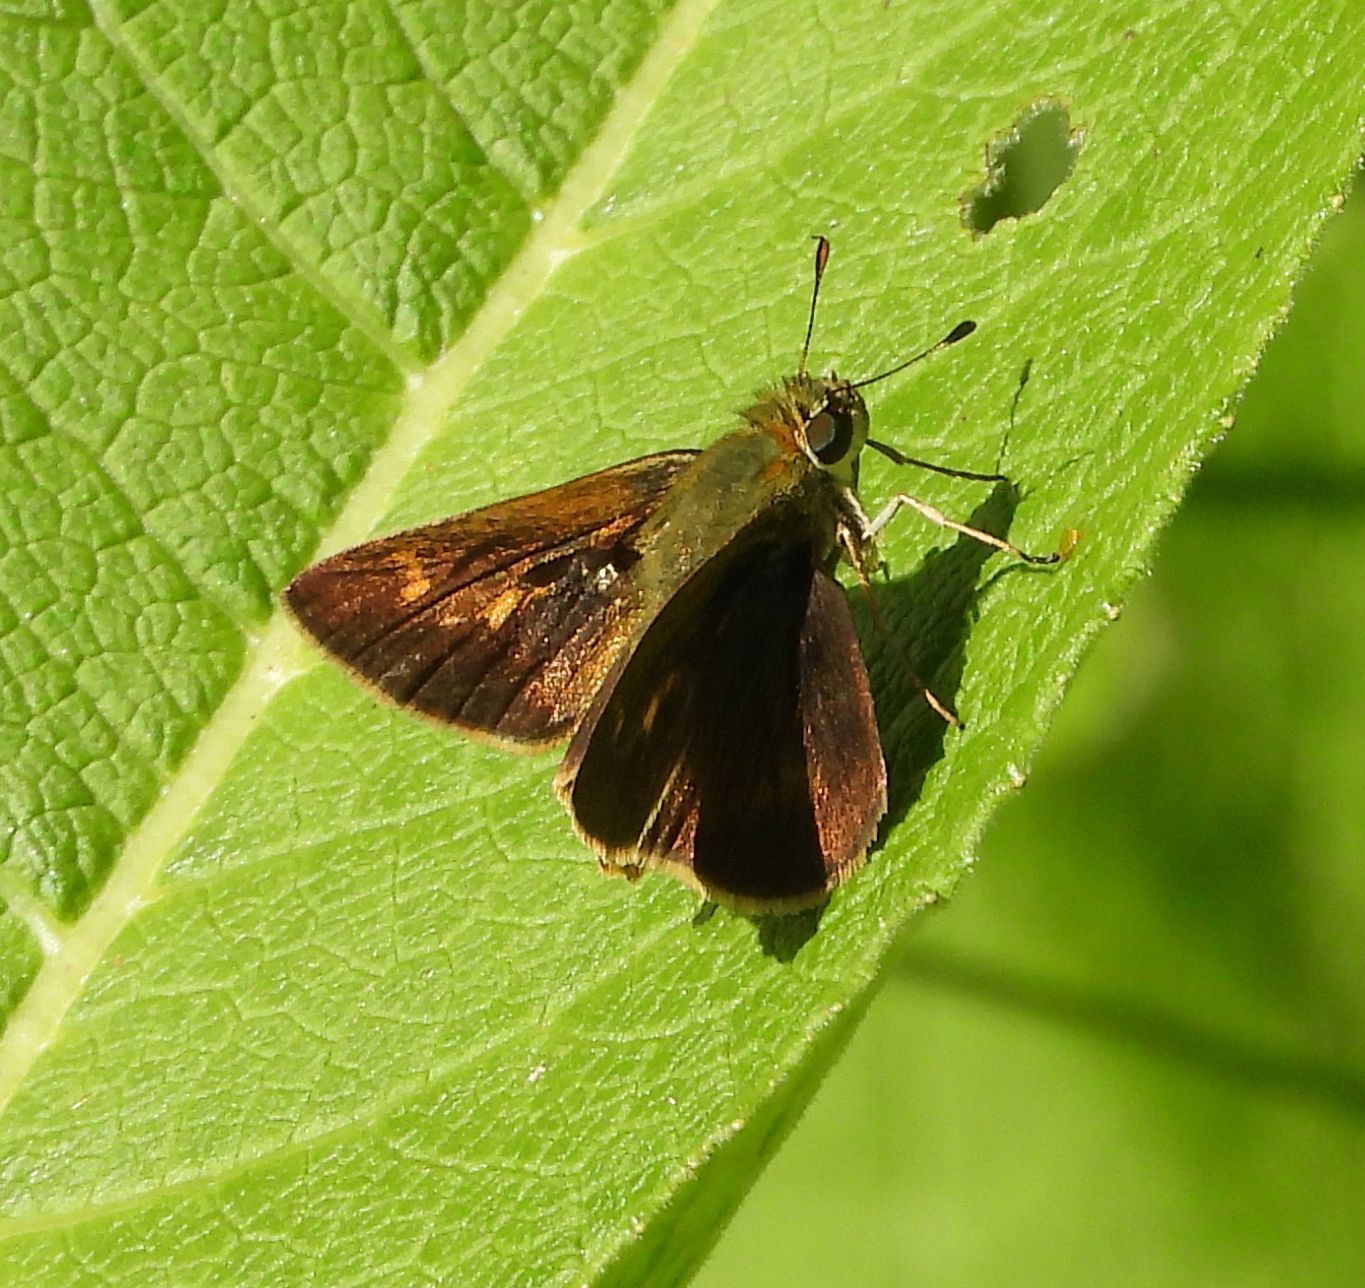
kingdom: Animalia
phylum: Arthropoda
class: Insecta
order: Lepidoptera
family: Hesperiidae
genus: Polites
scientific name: Polites egeremet
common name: Northern broken-dash
